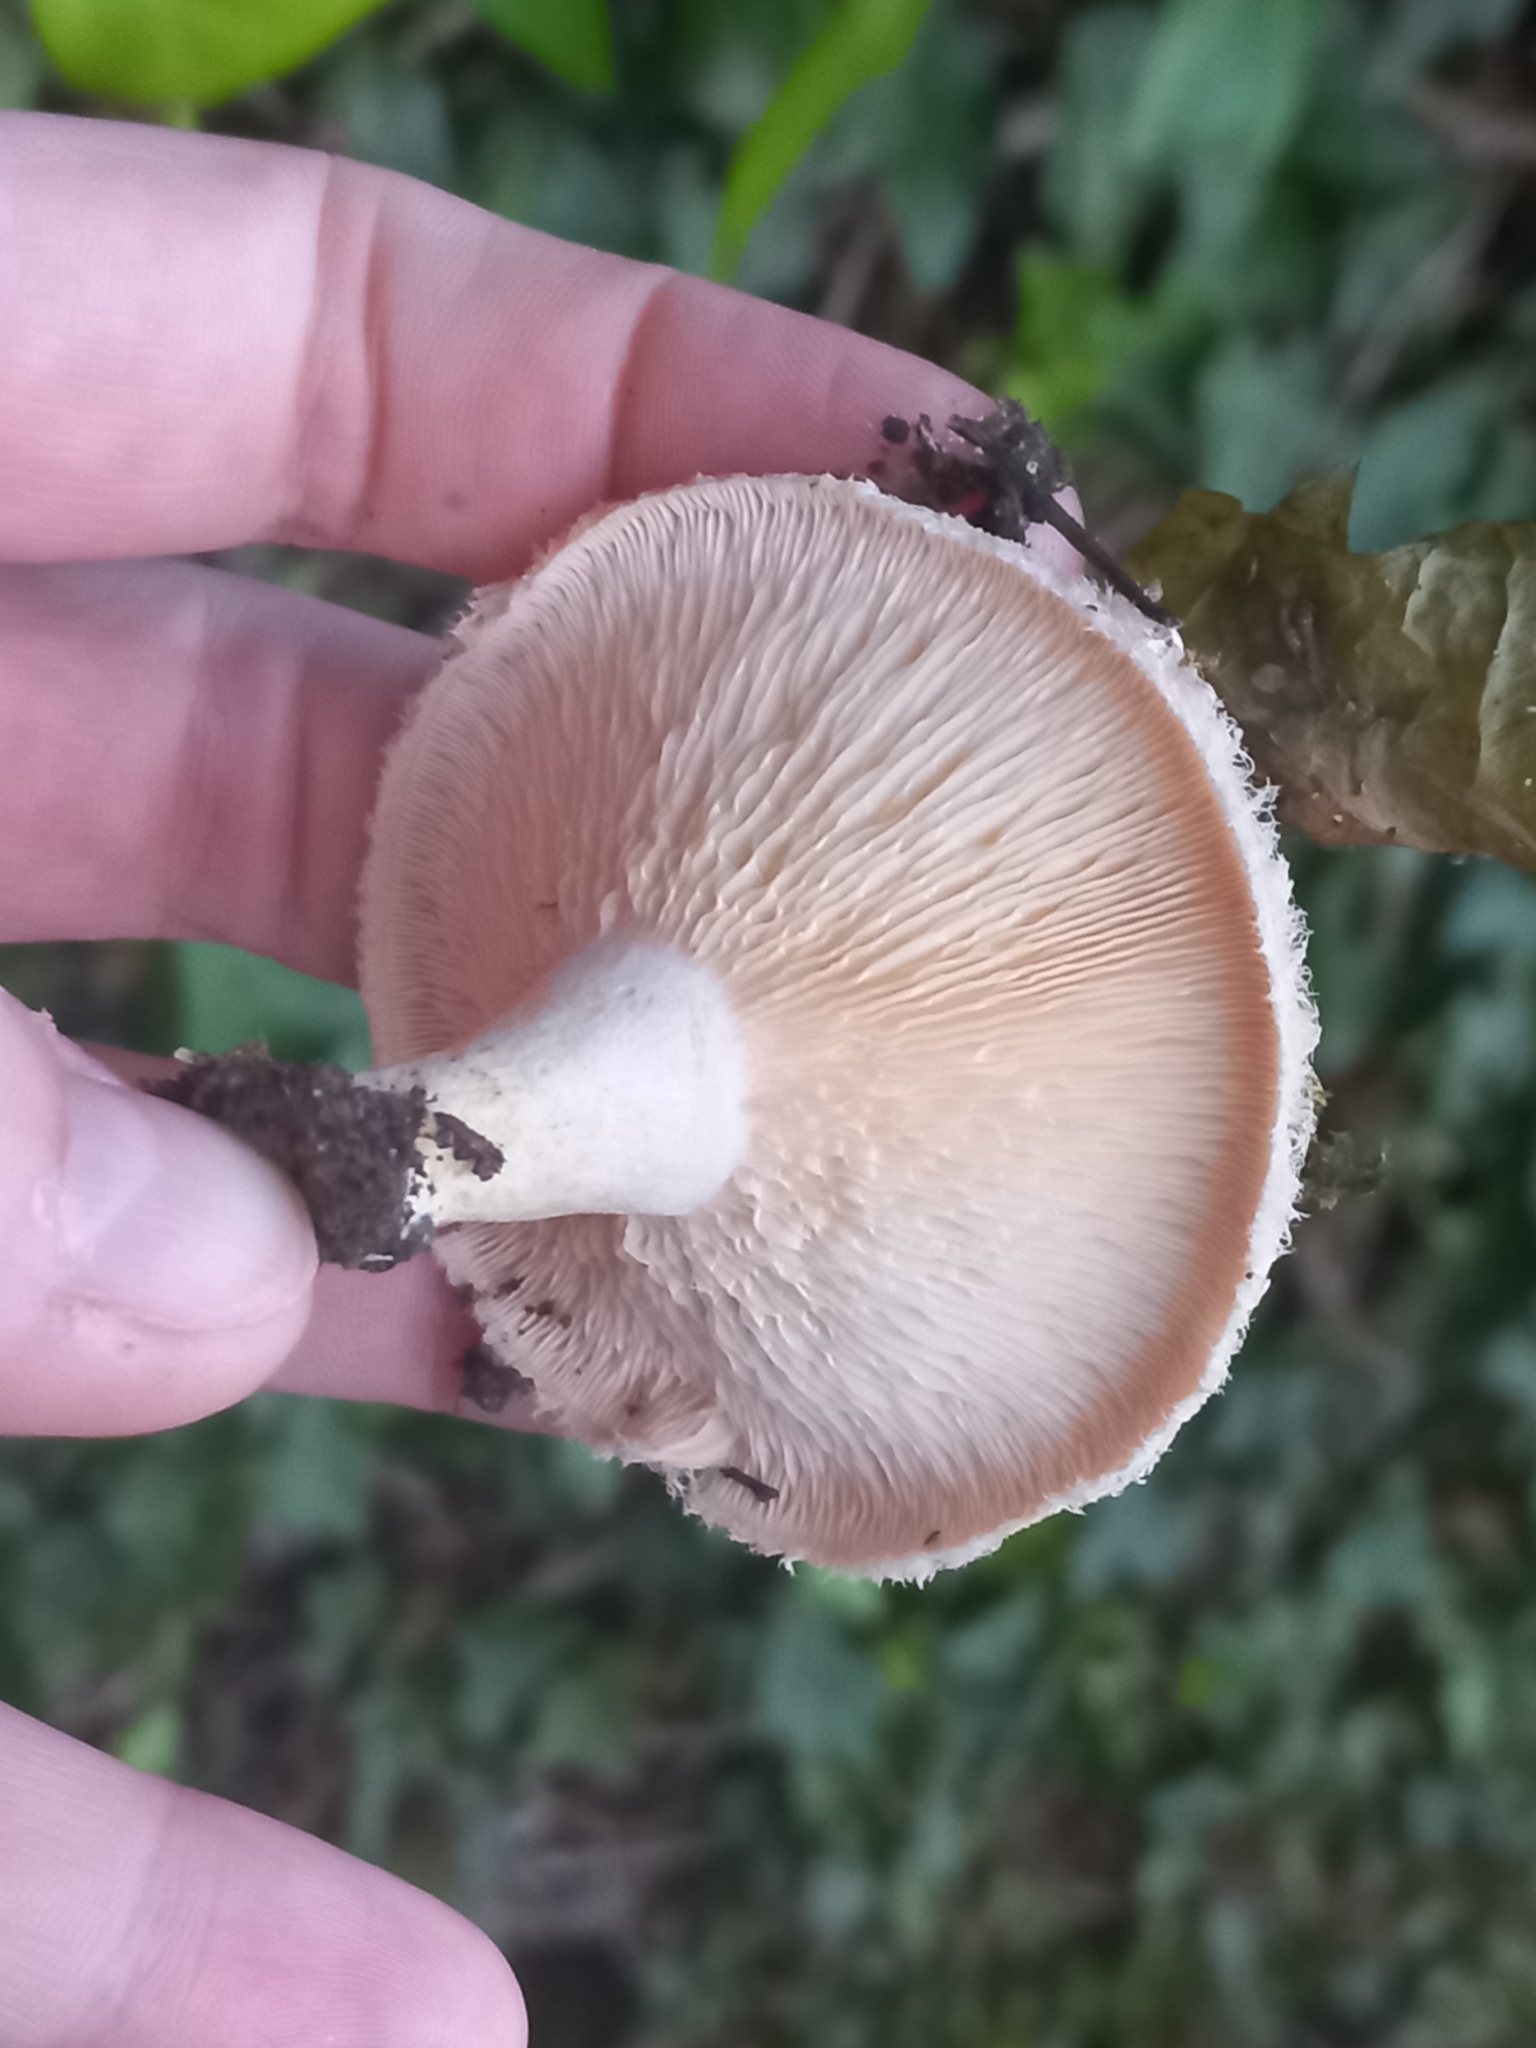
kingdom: Fungi
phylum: Basidiomycota
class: Agaricomycetes
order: Russulales
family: Russulaceae
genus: Lactarius
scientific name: Lactarius pubescens
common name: Bearded milkcap
